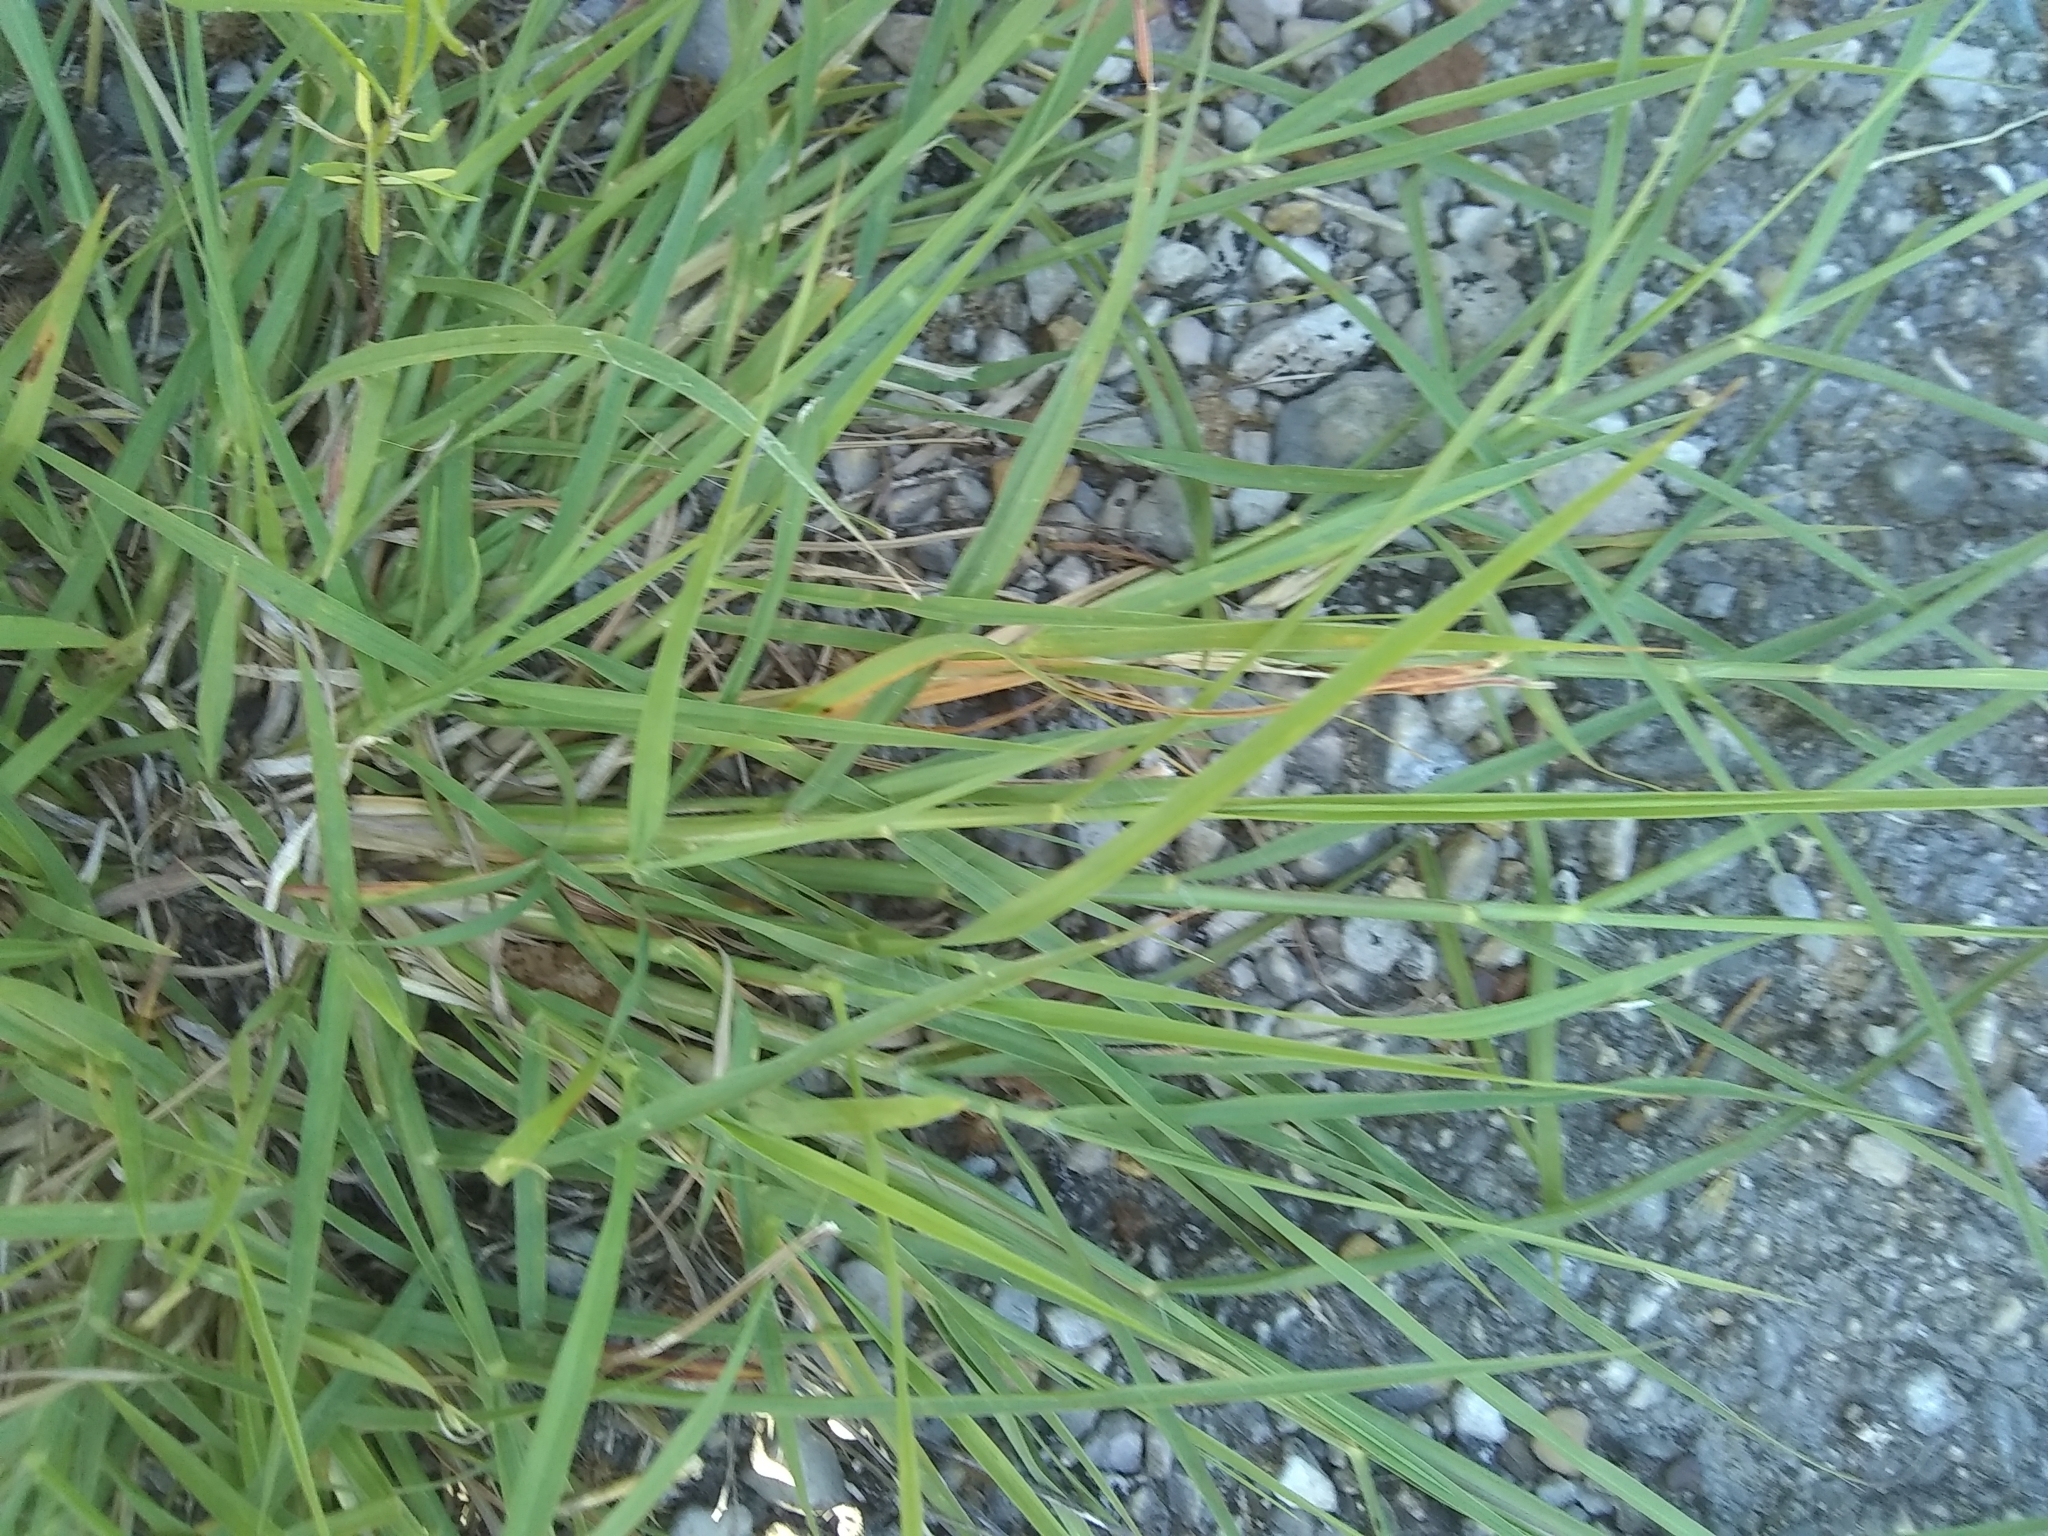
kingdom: Plantae
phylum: Tracheophyta
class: Liliopsida
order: Poales
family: Poaceae
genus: Bothriochloa
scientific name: Bothriochloa ischaemum
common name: Yellow bluestem
